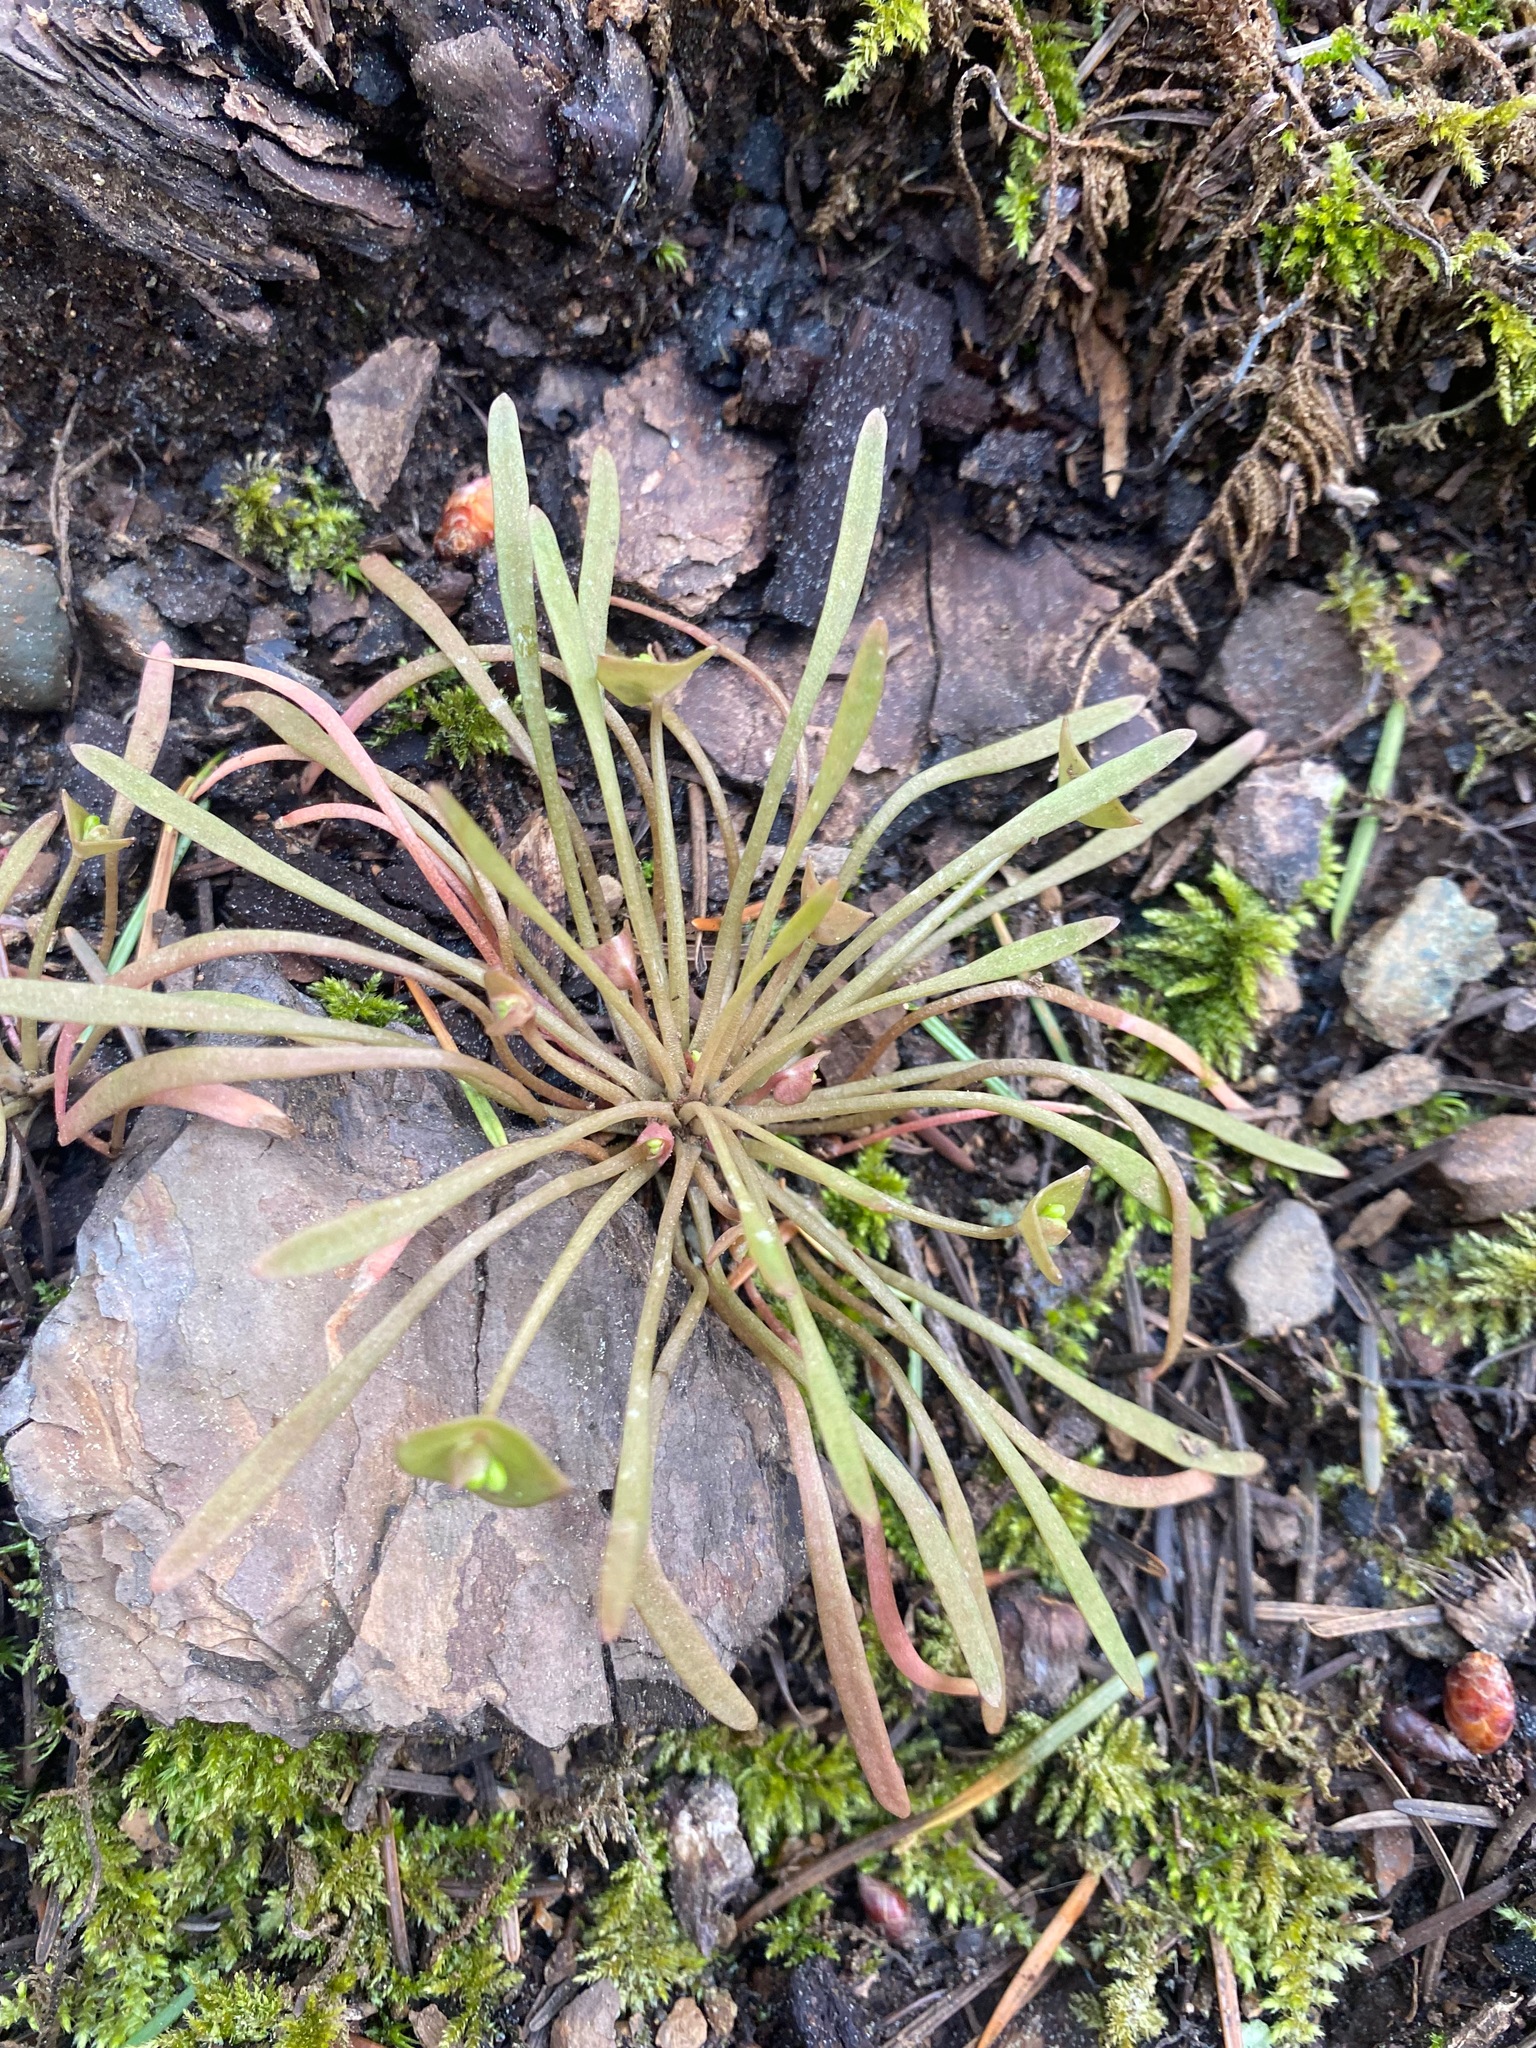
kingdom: Plantae
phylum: Tracheophyta
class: Magnoliopsida
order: Caryophyllales
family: Montiaceae
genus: Claytonia
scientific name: Claytonia parviflora
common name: Indian-lettuce
